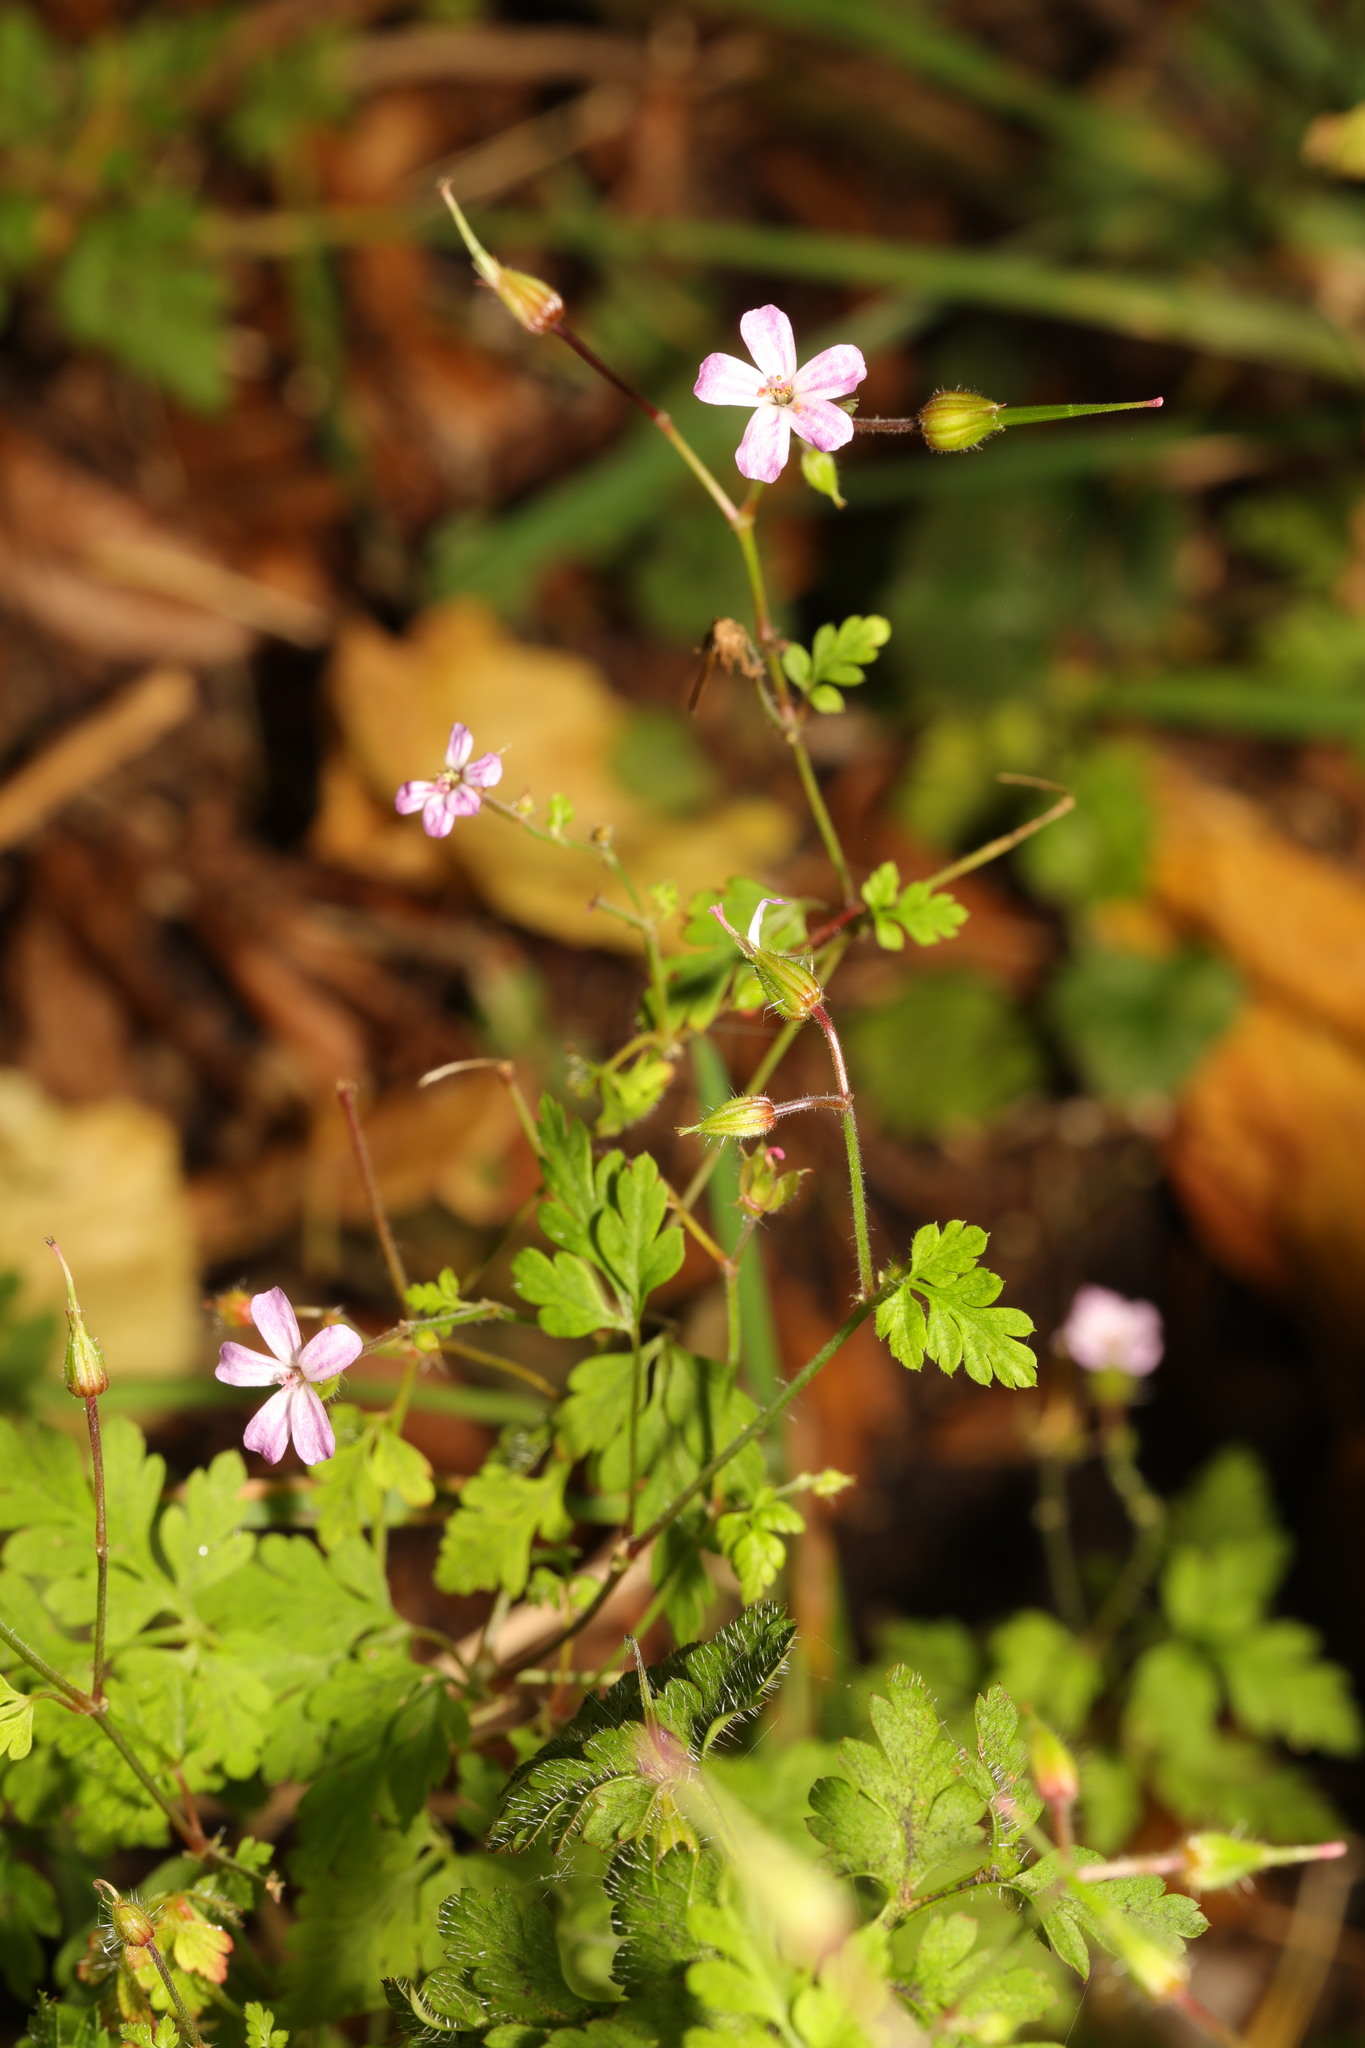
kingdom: Plantae
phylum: Tracheophyta
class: Magnoliopsida
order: Geraniales
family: Geraniaceae
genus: Geranium
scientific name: Geranium robertianum
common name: Herb-robert
